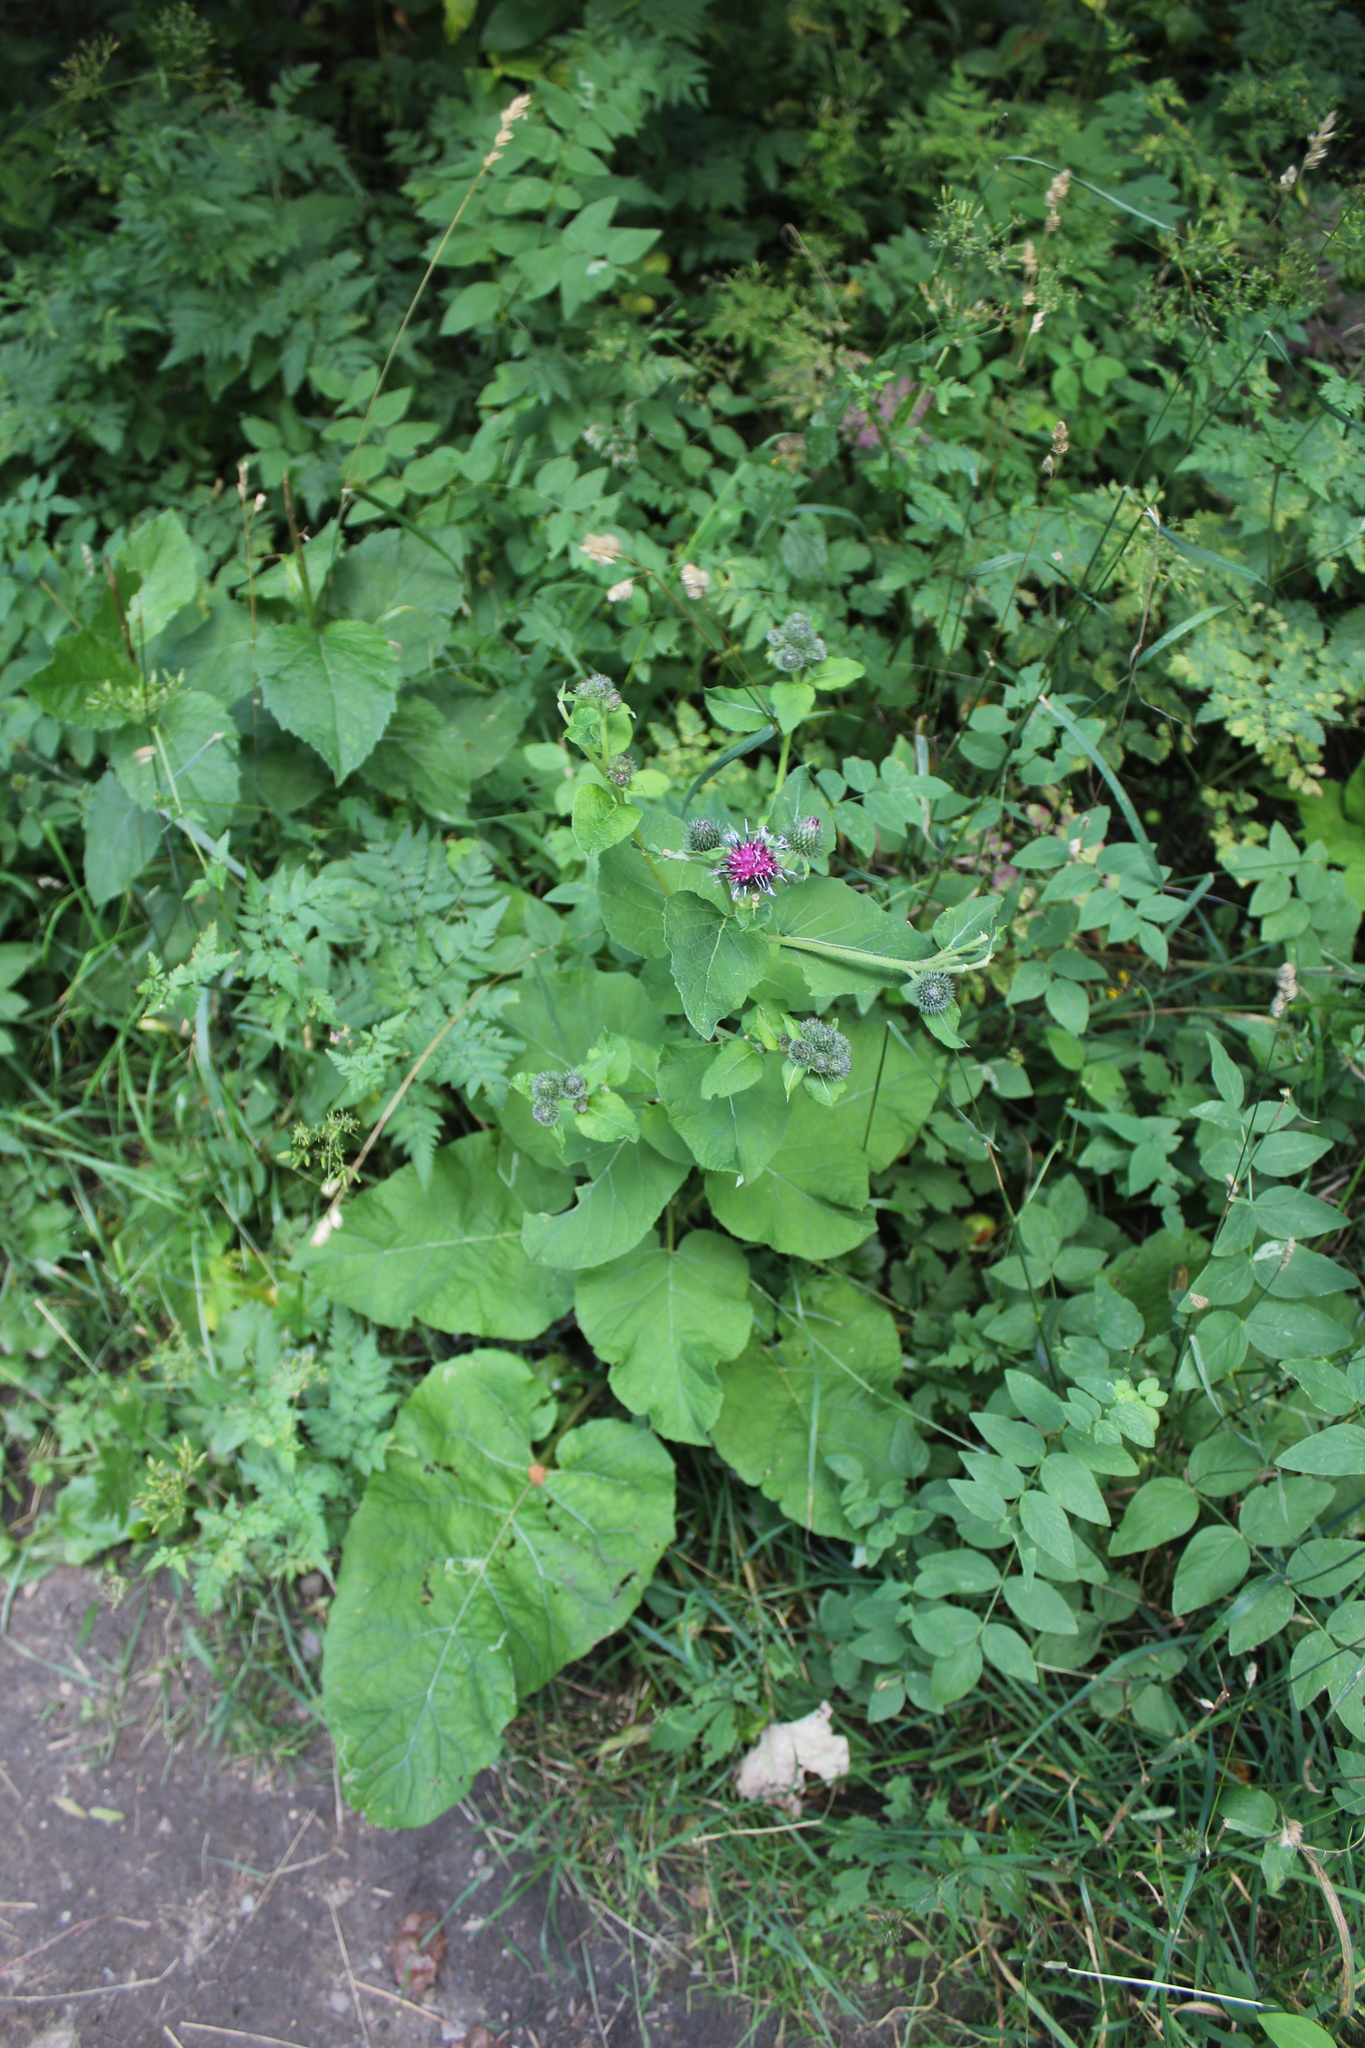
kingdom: Plantae
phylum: Tracheophyta
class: Magnoliopsida
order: Asterales
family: Asteraceae
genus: Arctium
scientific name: Arctium tomentosum
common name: Woolly burdock
